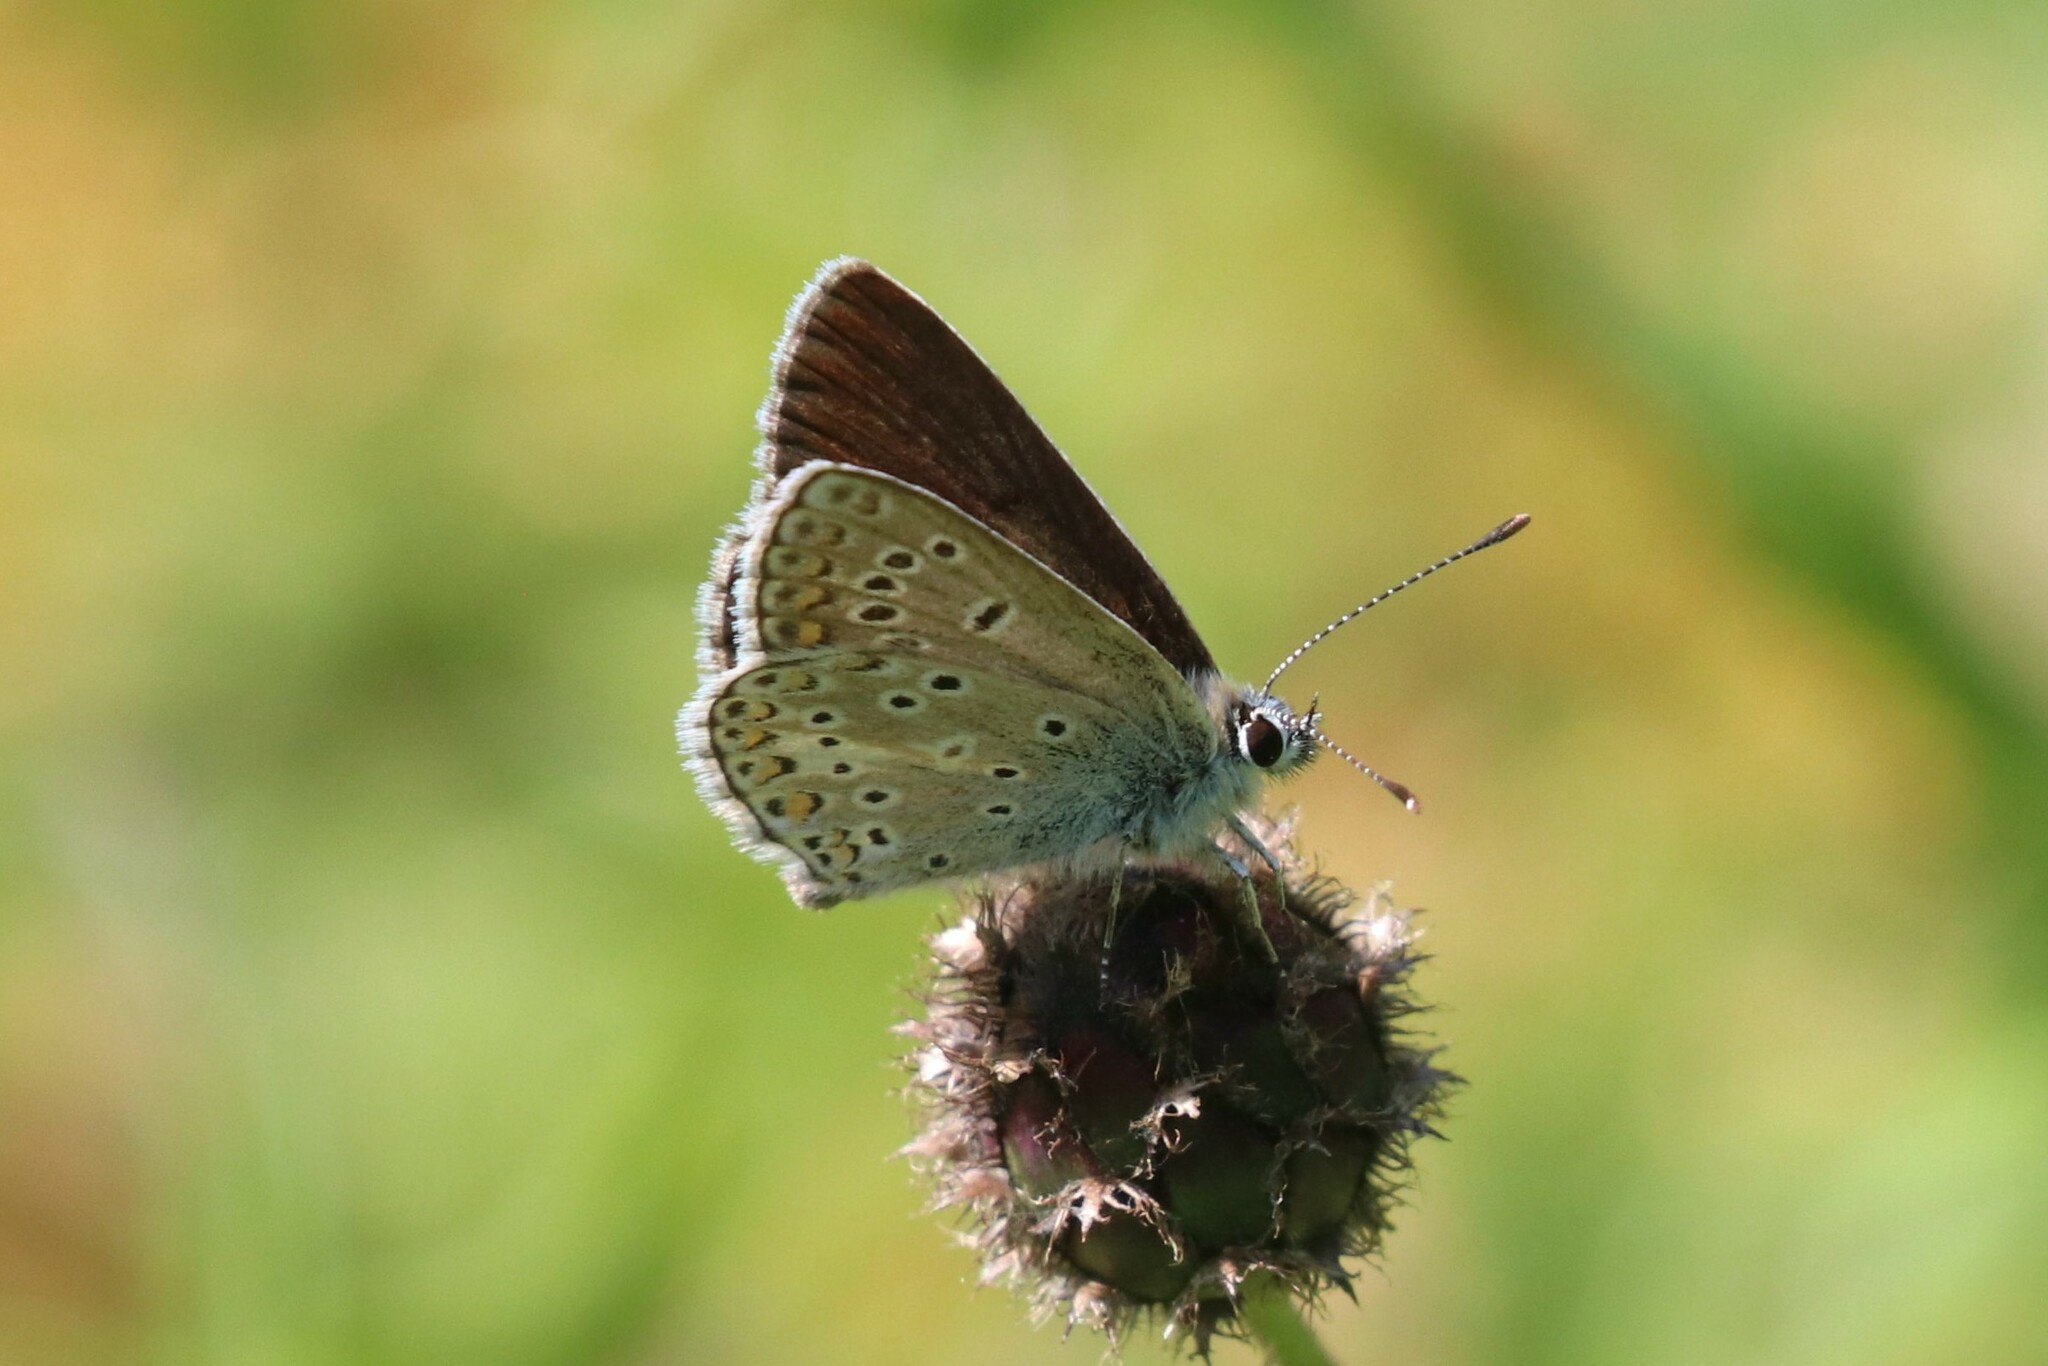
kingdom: Animalia
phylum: Arthropoda
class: Insecta
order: Lepidoptera
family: Lycaenidae
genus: Aricia
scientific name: Aricia artaxerxes
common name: Northern brown argus
